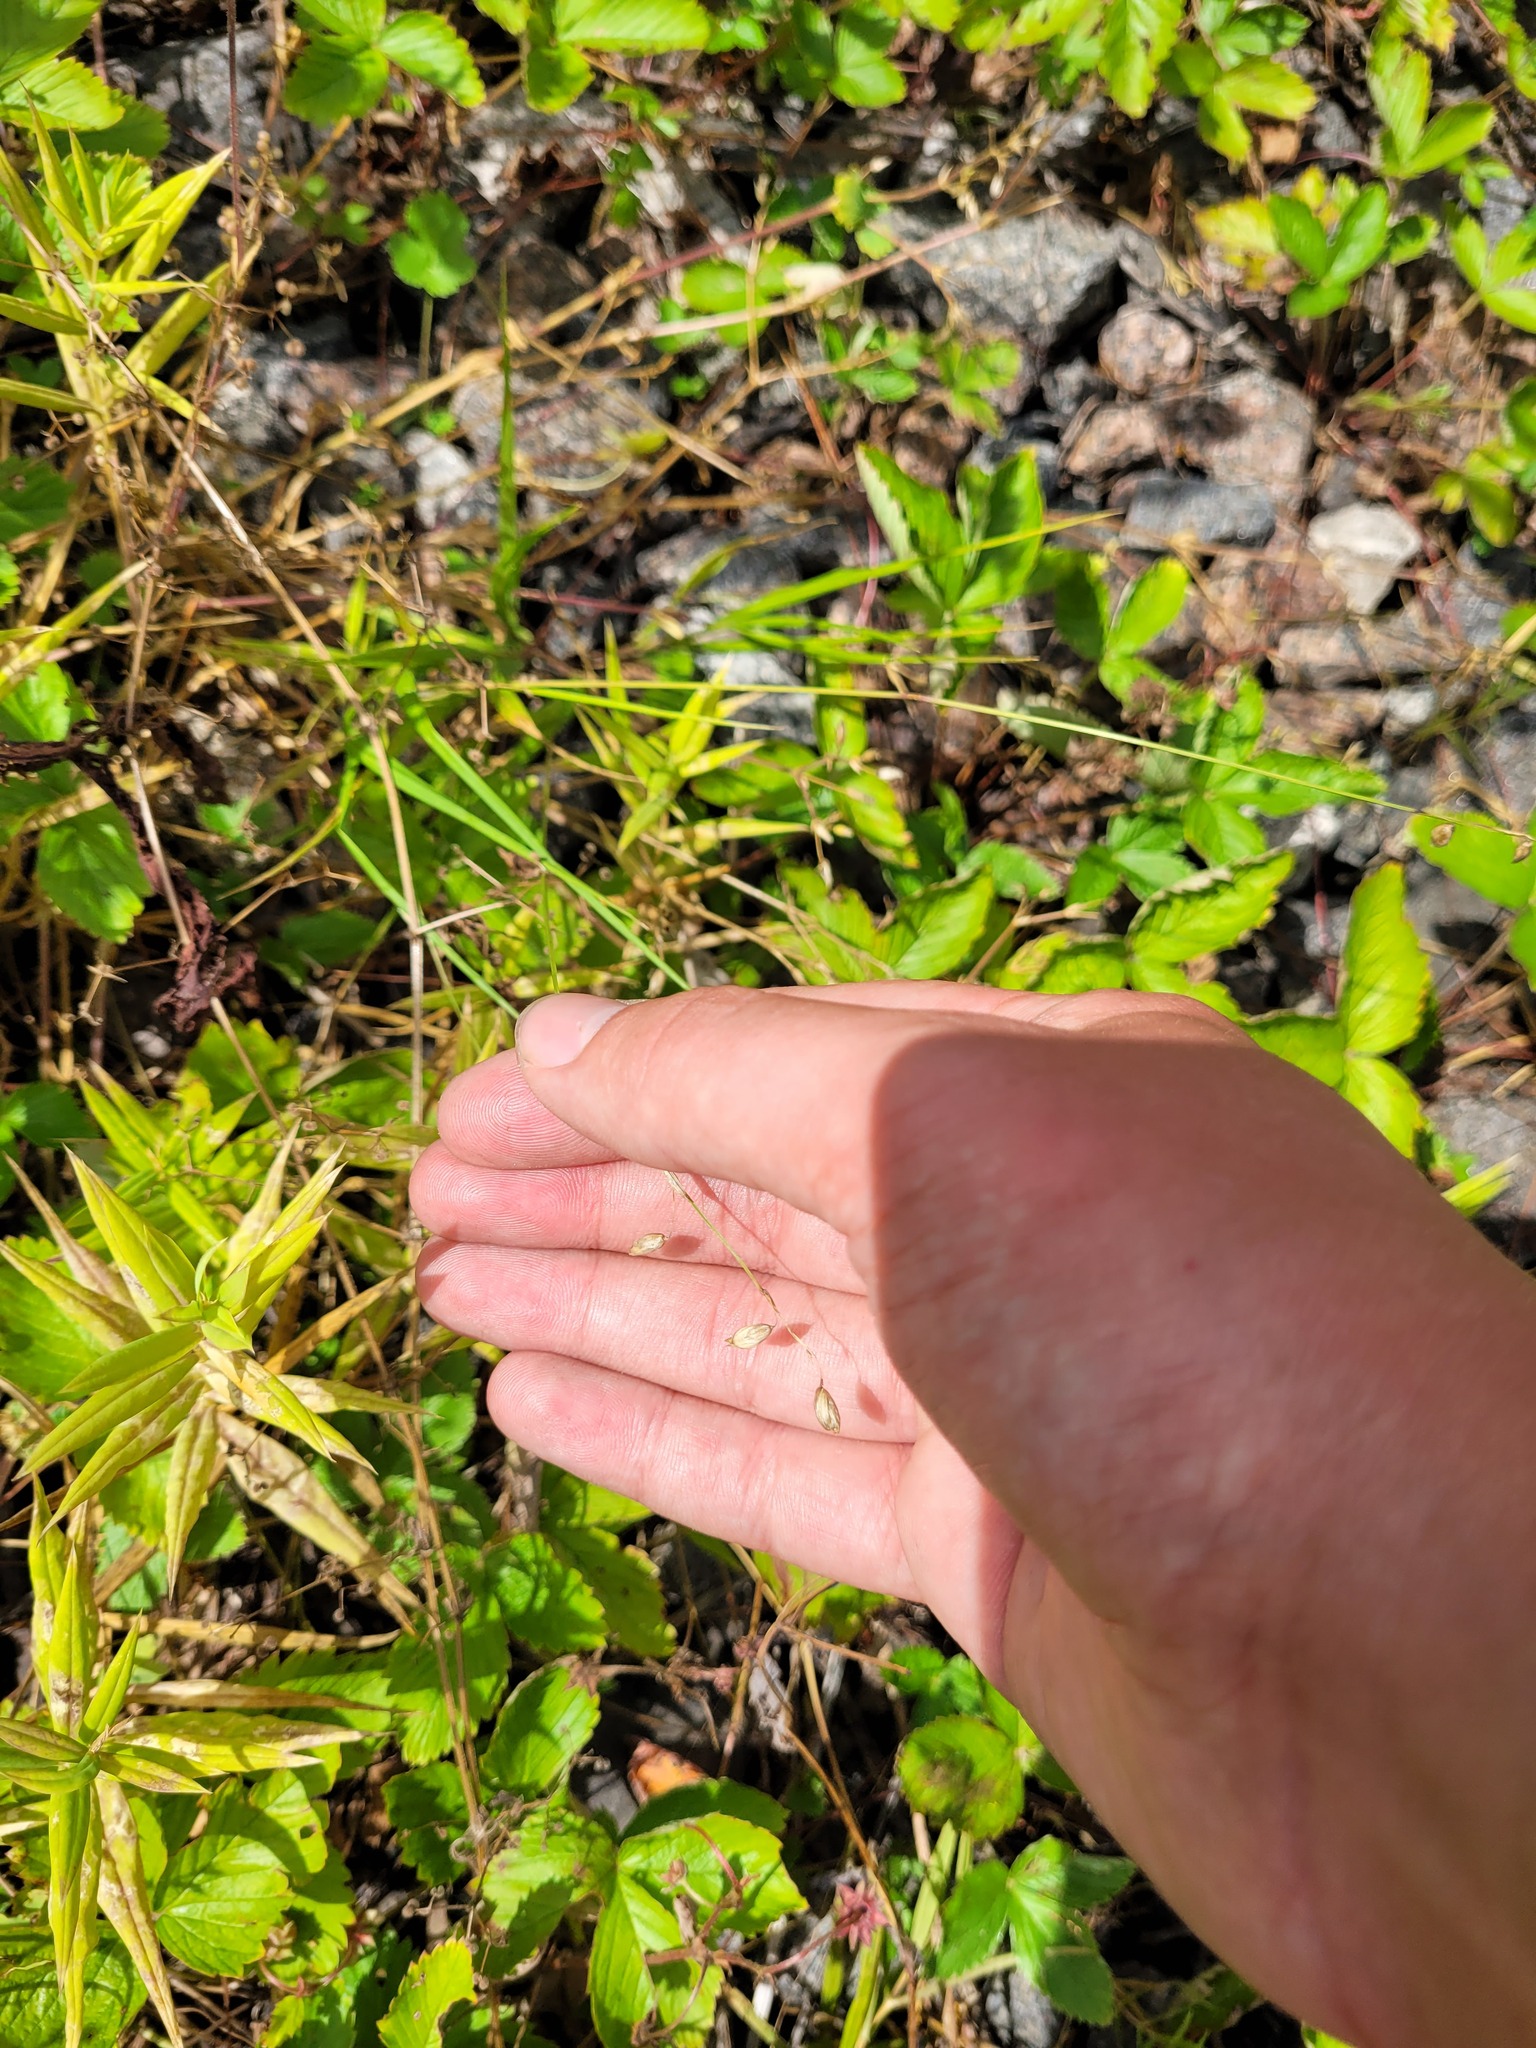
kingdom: Plantae
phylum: Tracheophyta
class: Liliopsida
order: Poales
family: Poaceae
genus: Melica
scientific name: Melica nutans
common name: Mountain melick
